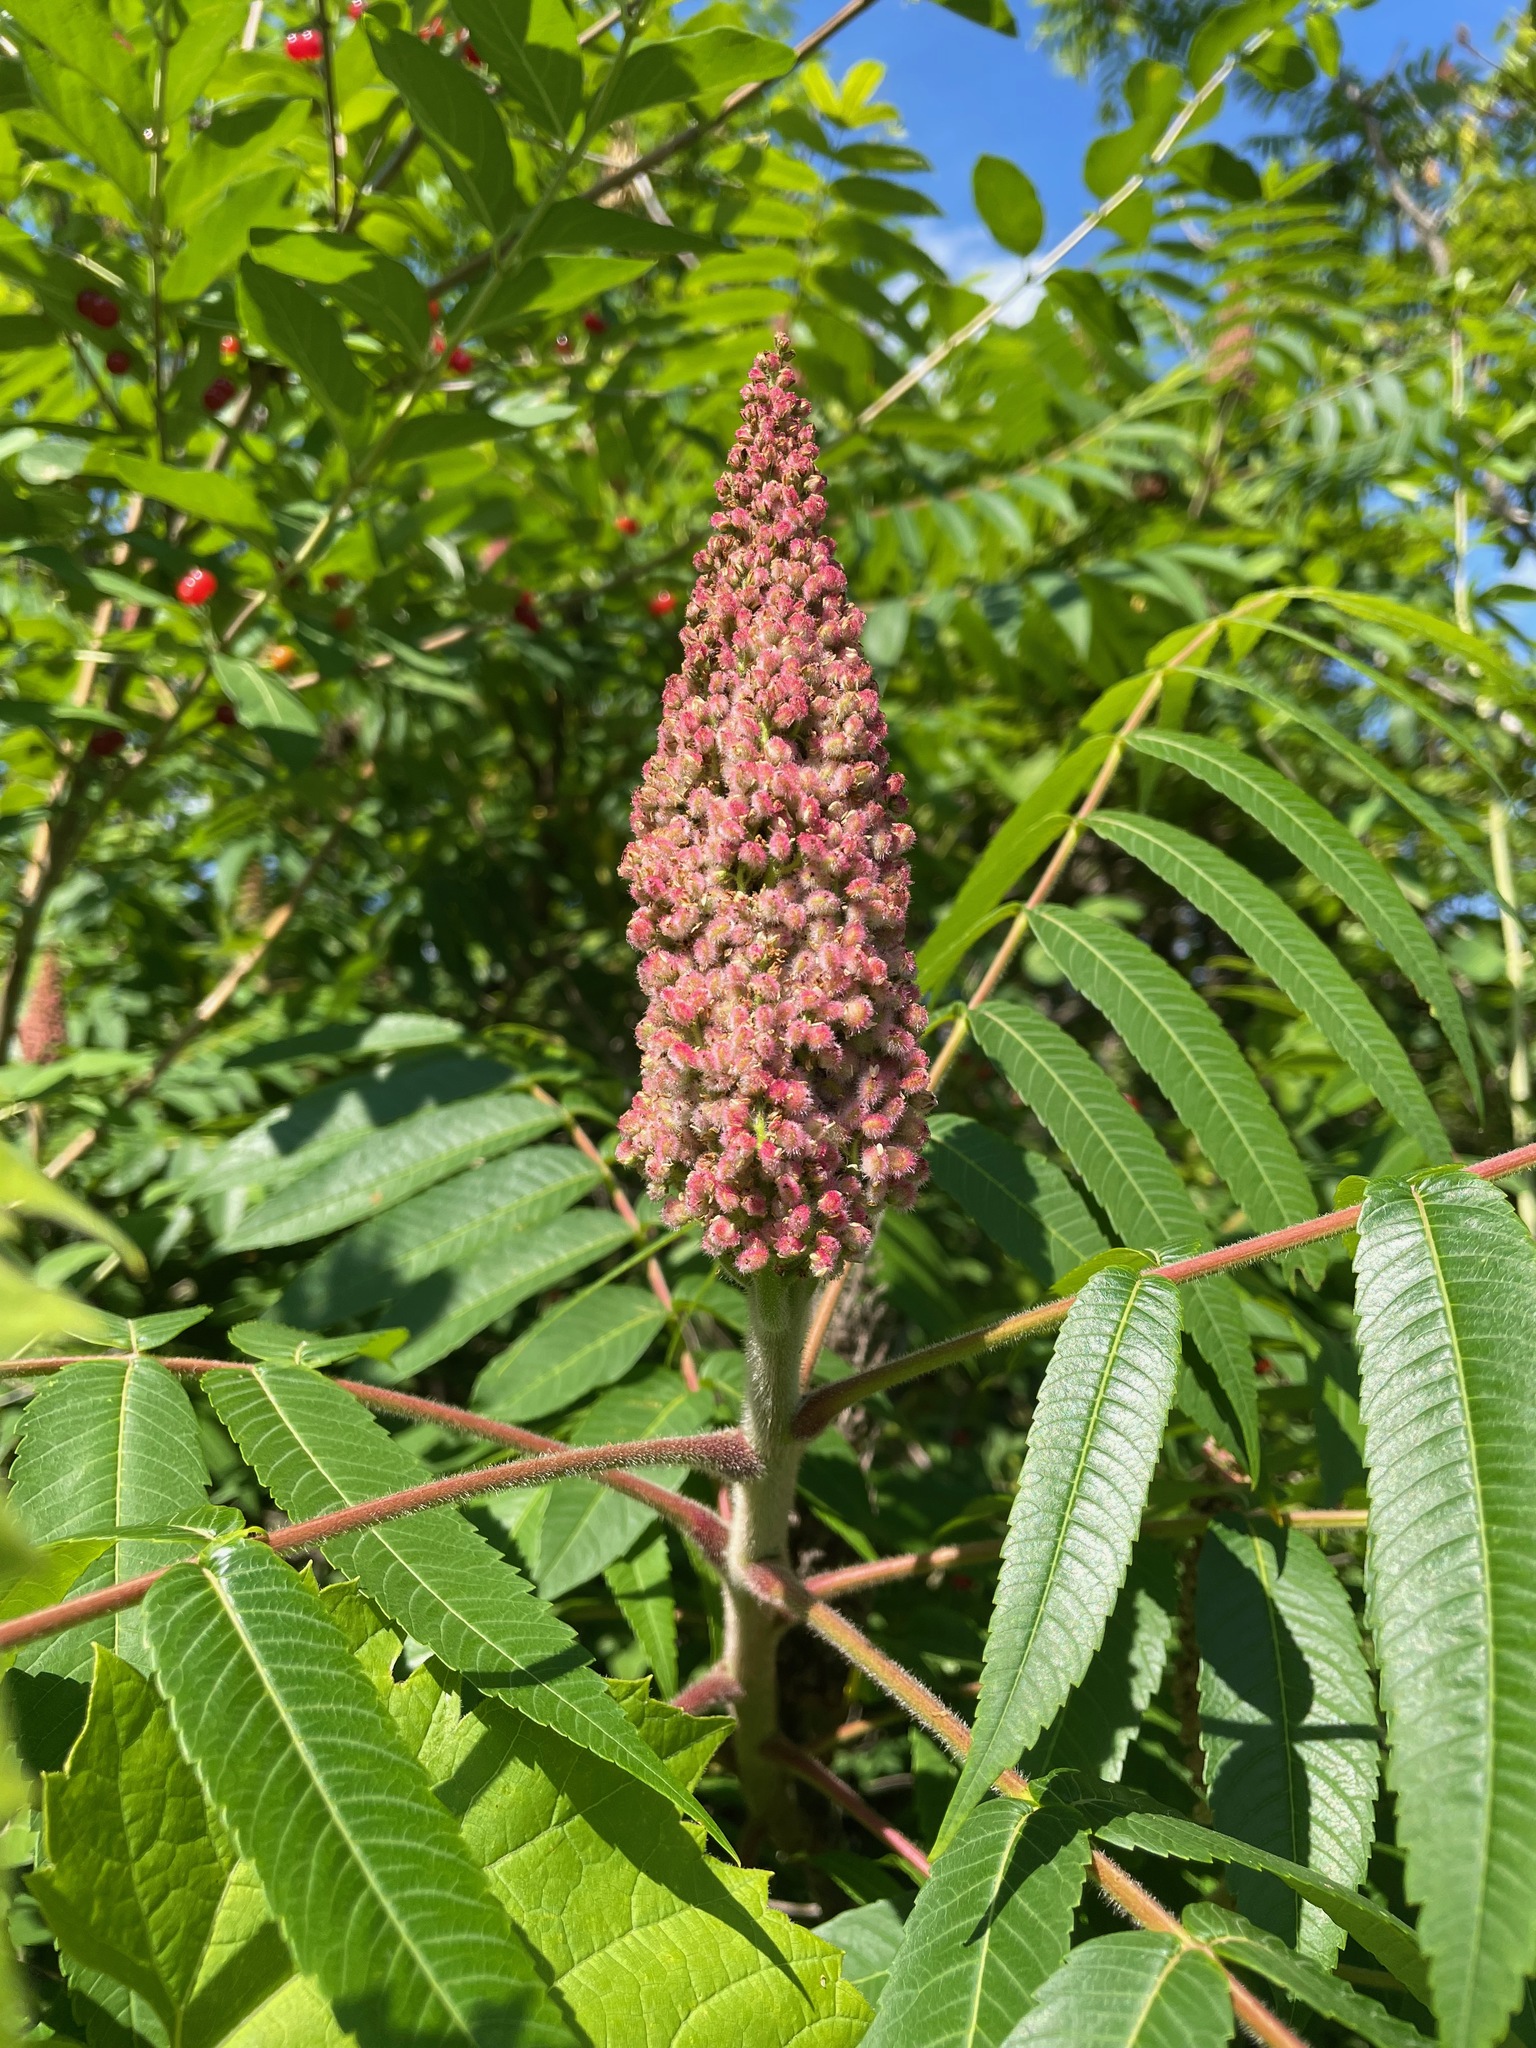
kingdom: Plantae
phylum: Tracheophyta
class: Magnoliopsida
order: Sapindales
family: Anacardiaceae
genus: Rhus
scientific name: Rhus typhina
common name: Staghorn sumac
